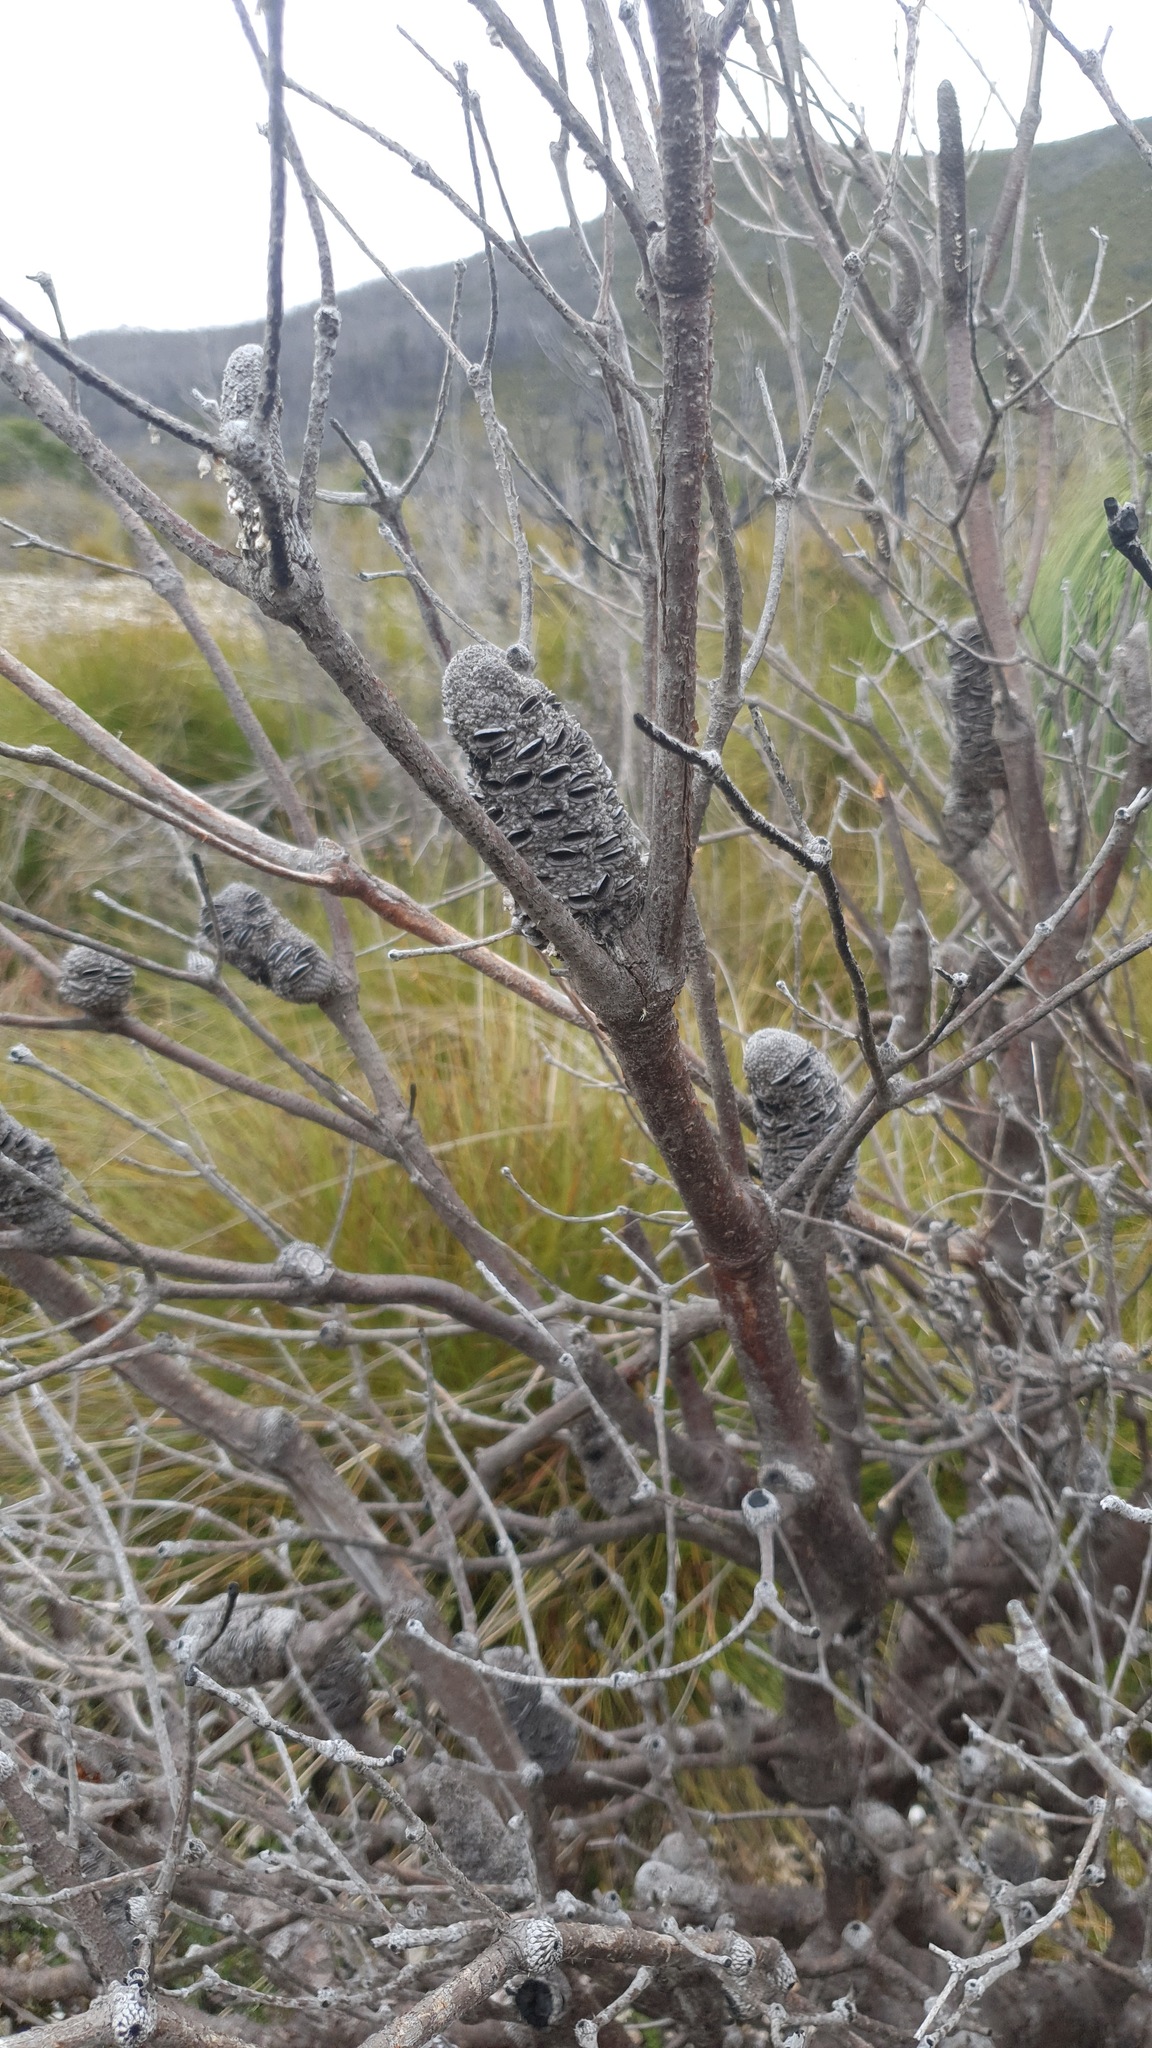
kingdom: Plantae
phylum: Tracheophyta
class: Magnoliopsida
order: Proteales
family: Proteaceae
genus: Banksia
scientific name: Banksia marginata
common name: Silver banksia
